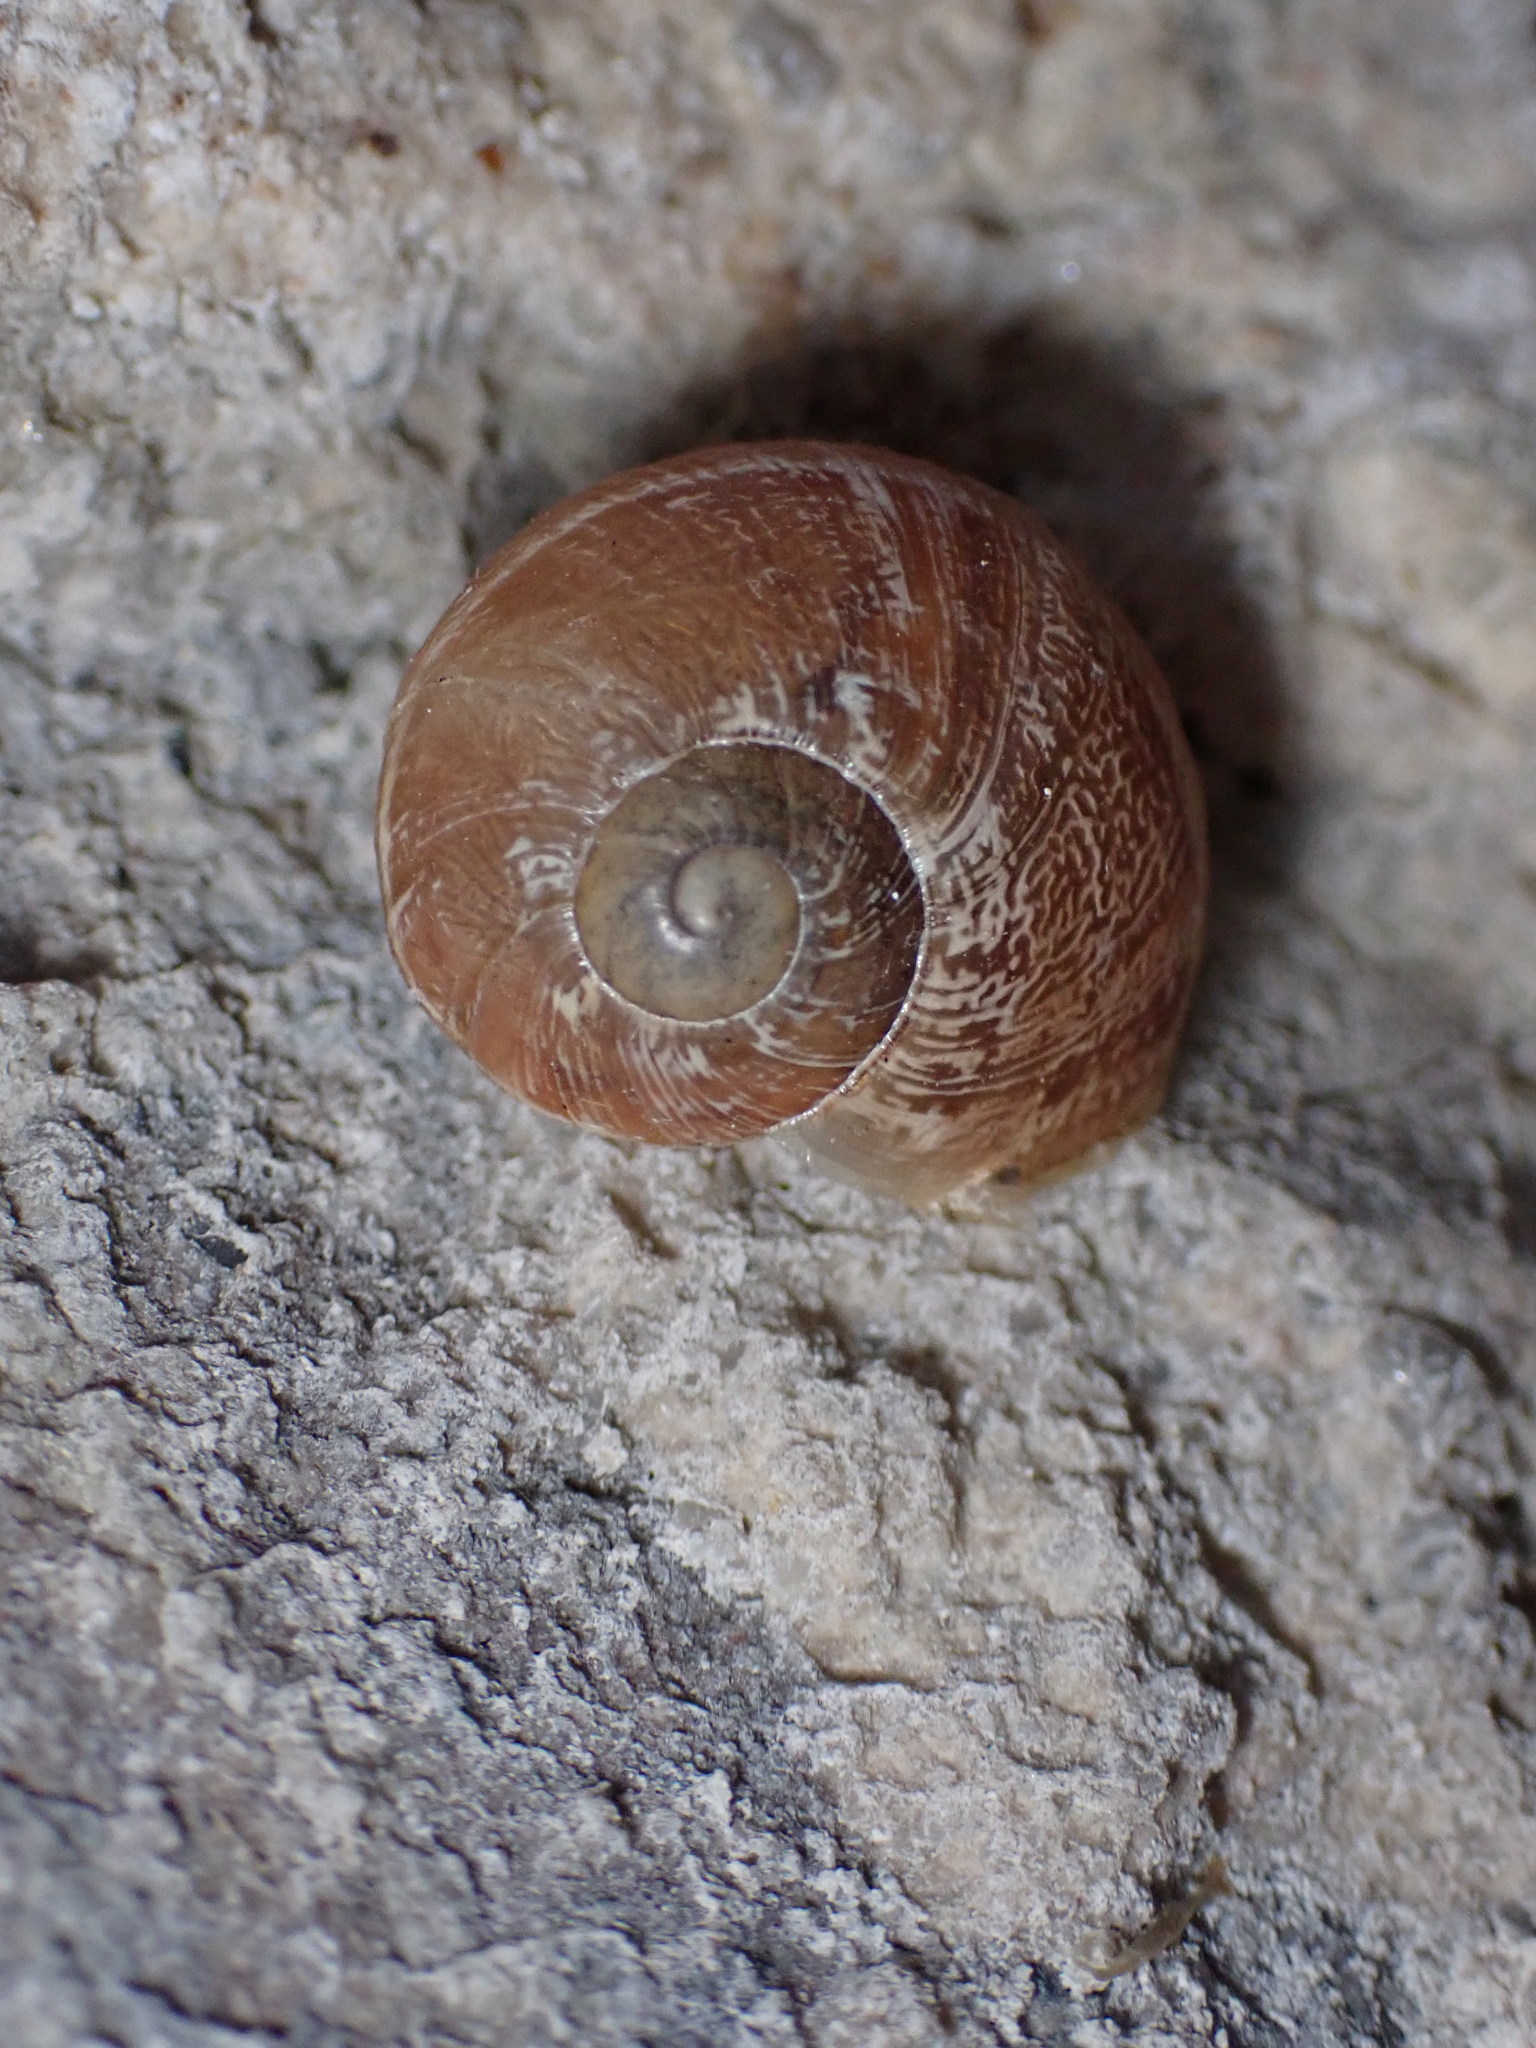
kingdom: Animalia
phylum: Mollusca
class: Gastropoda
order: Stylommatophora
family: Helicidae
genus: Cornu
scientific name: Cornu aspersum
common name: Brown garden snail
